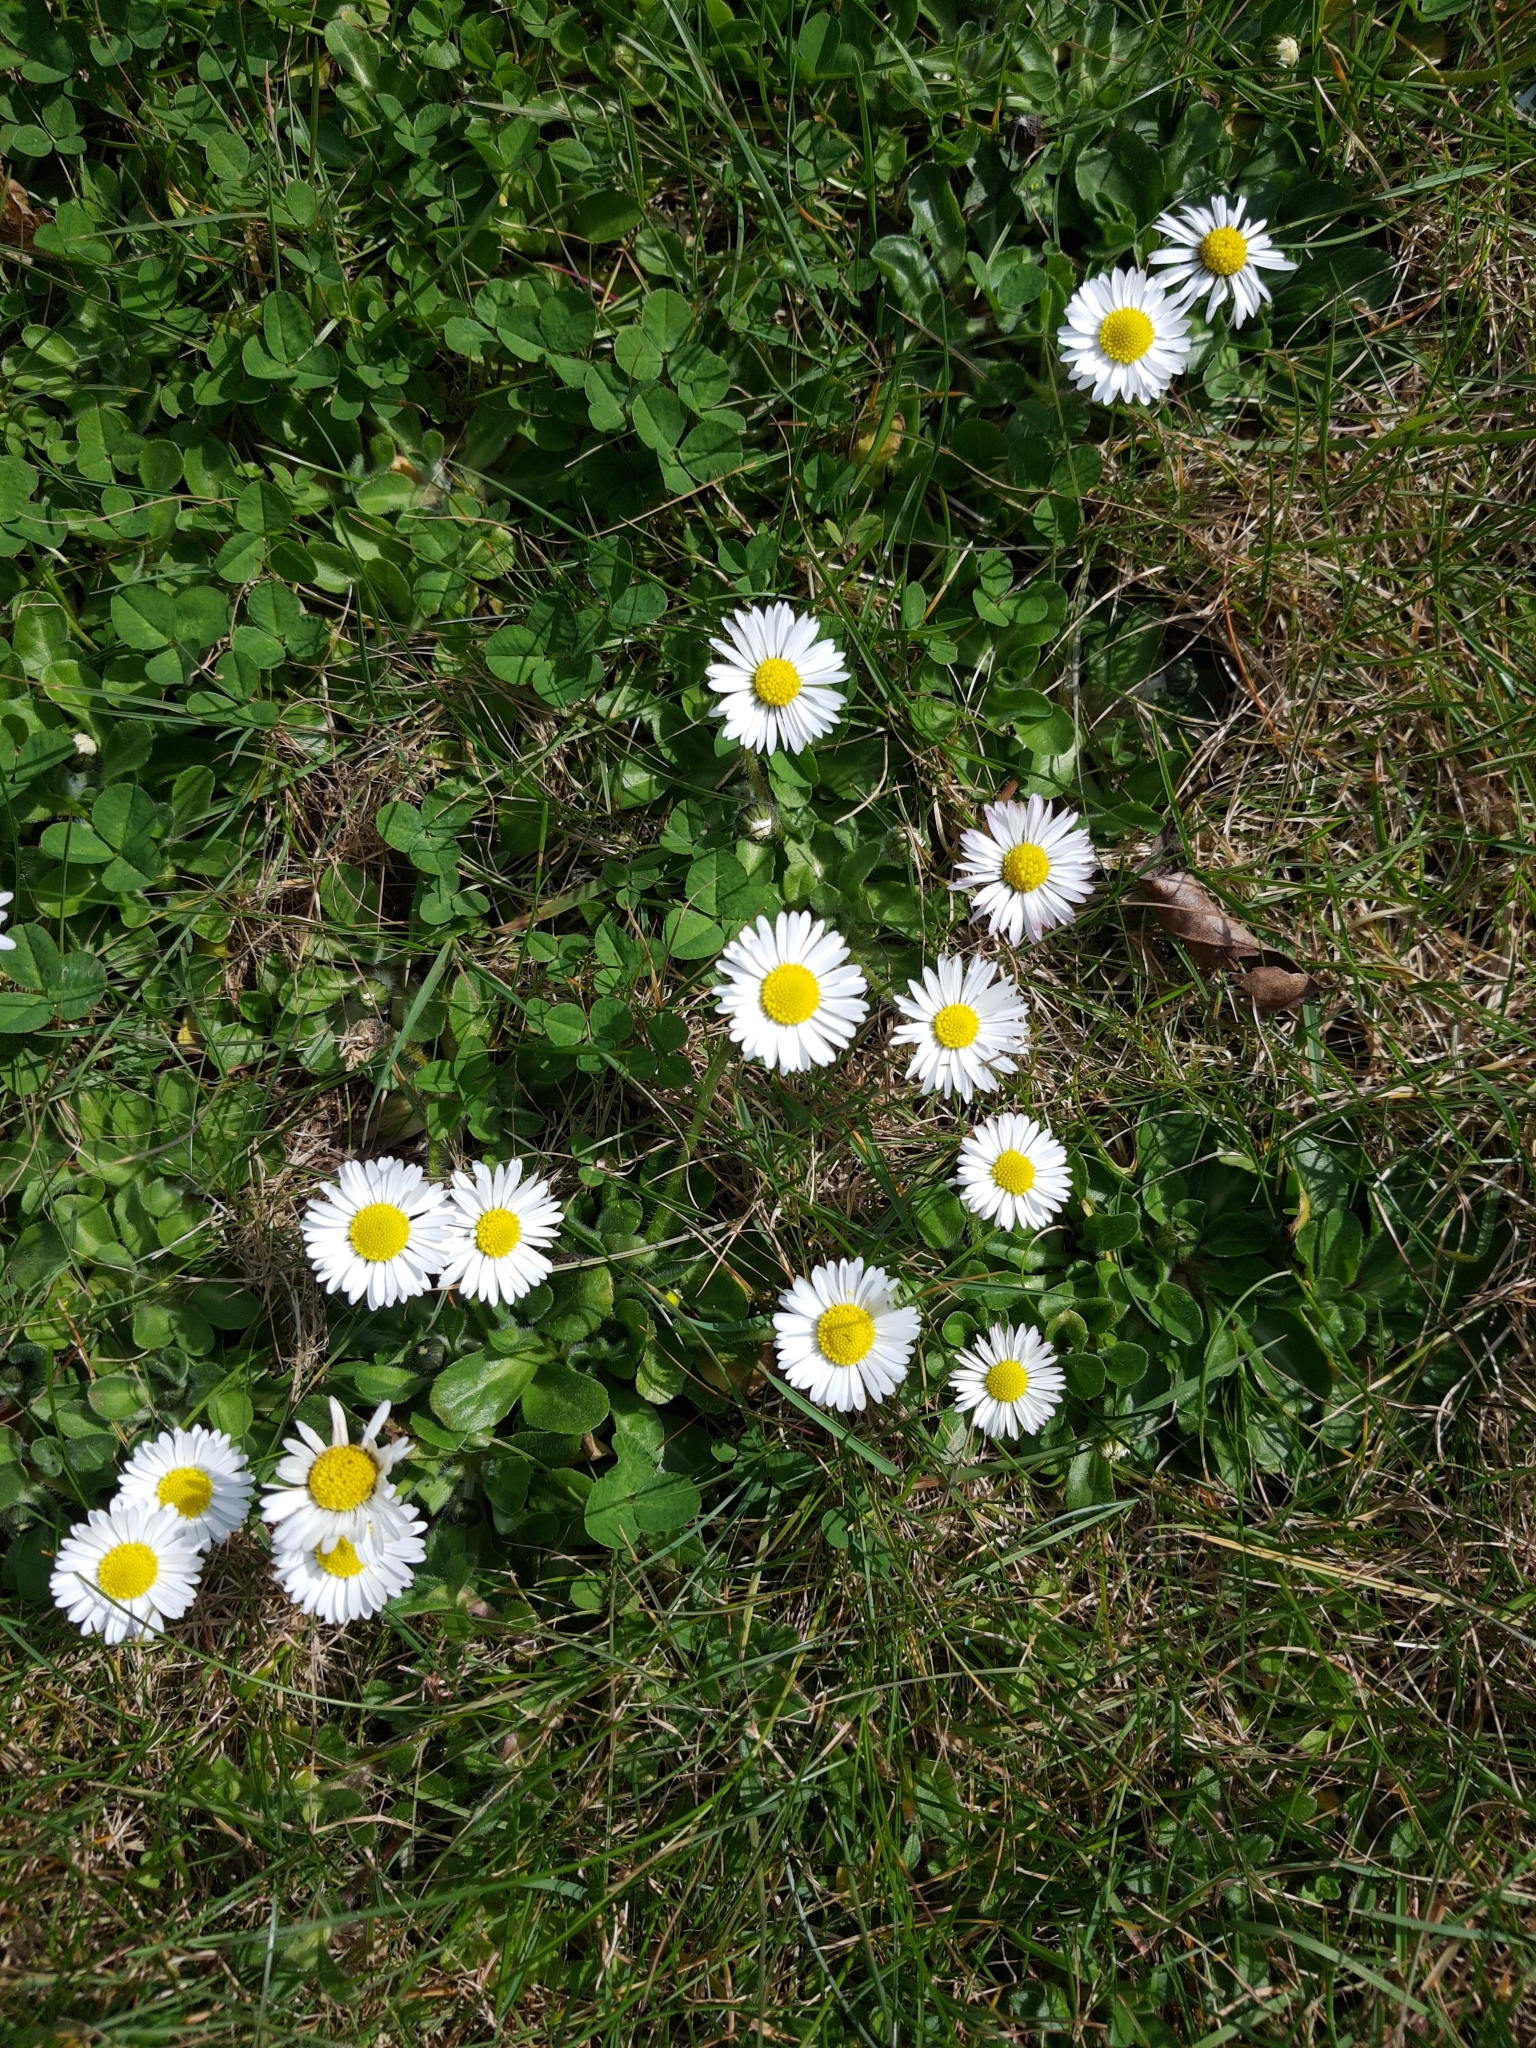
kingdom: Plantae
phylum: Tracheophyta
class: Magnoliopsida
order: Asterales
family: Asteraceae
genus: Bellis
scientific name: Bellis perennis
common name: Lawndaisy
